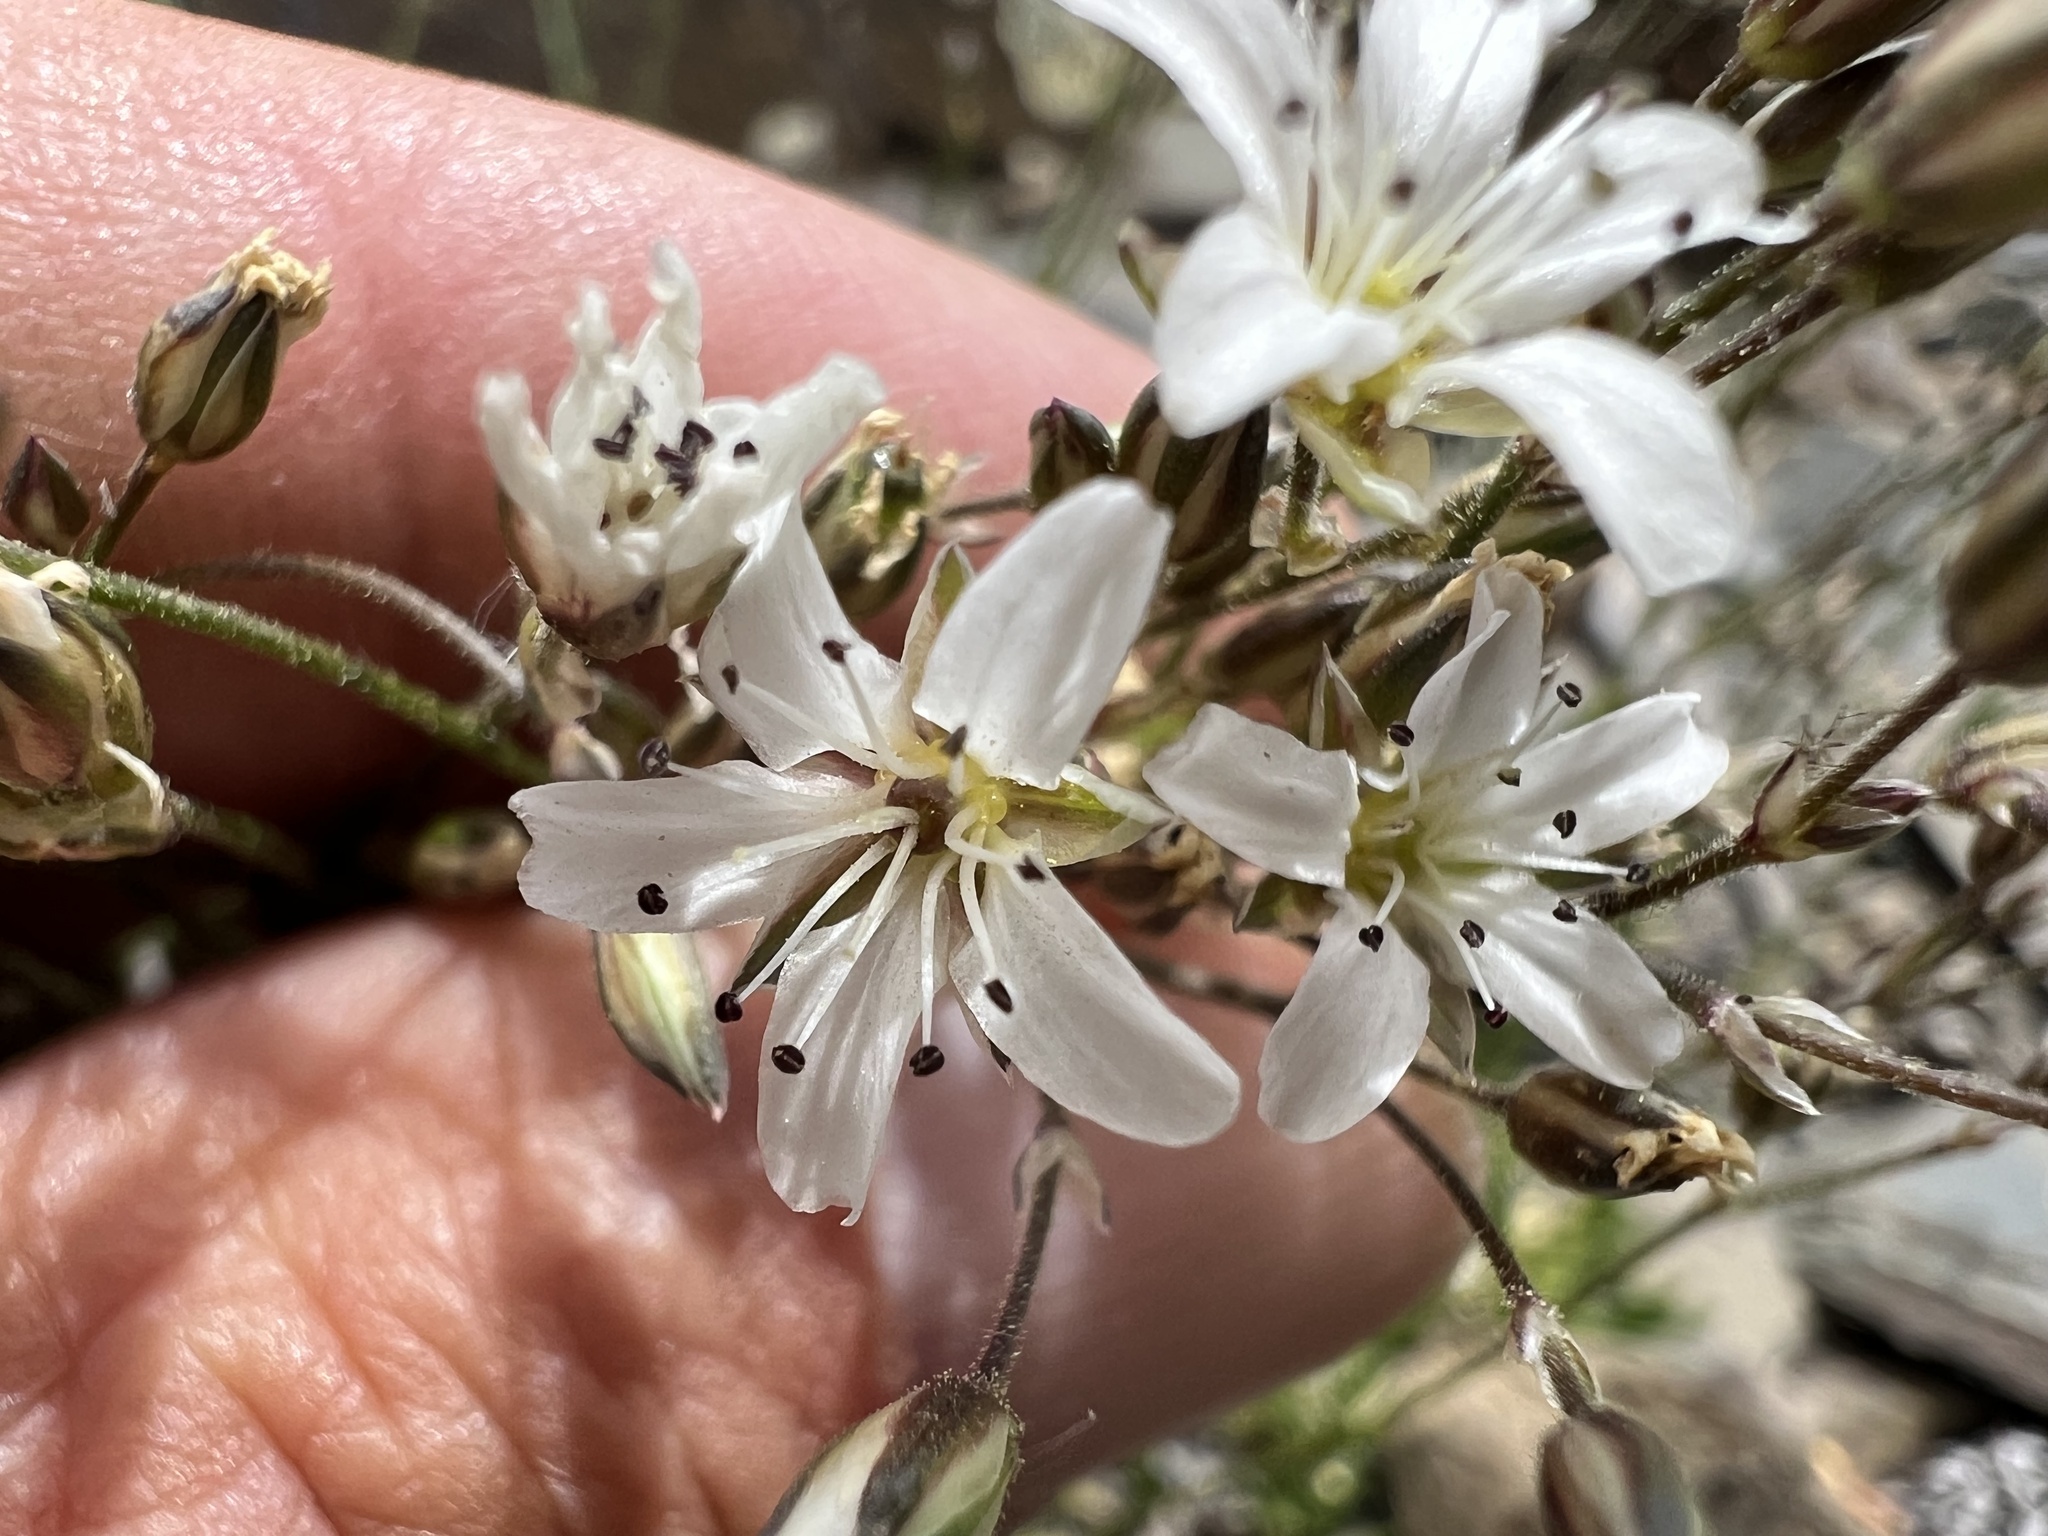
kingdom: Plantae
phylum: Tracheophyta
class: Magnoliopsida
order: Caryophyllales
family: Caryophyllaceae
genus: Eremogone
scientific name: Eremogone kingii
